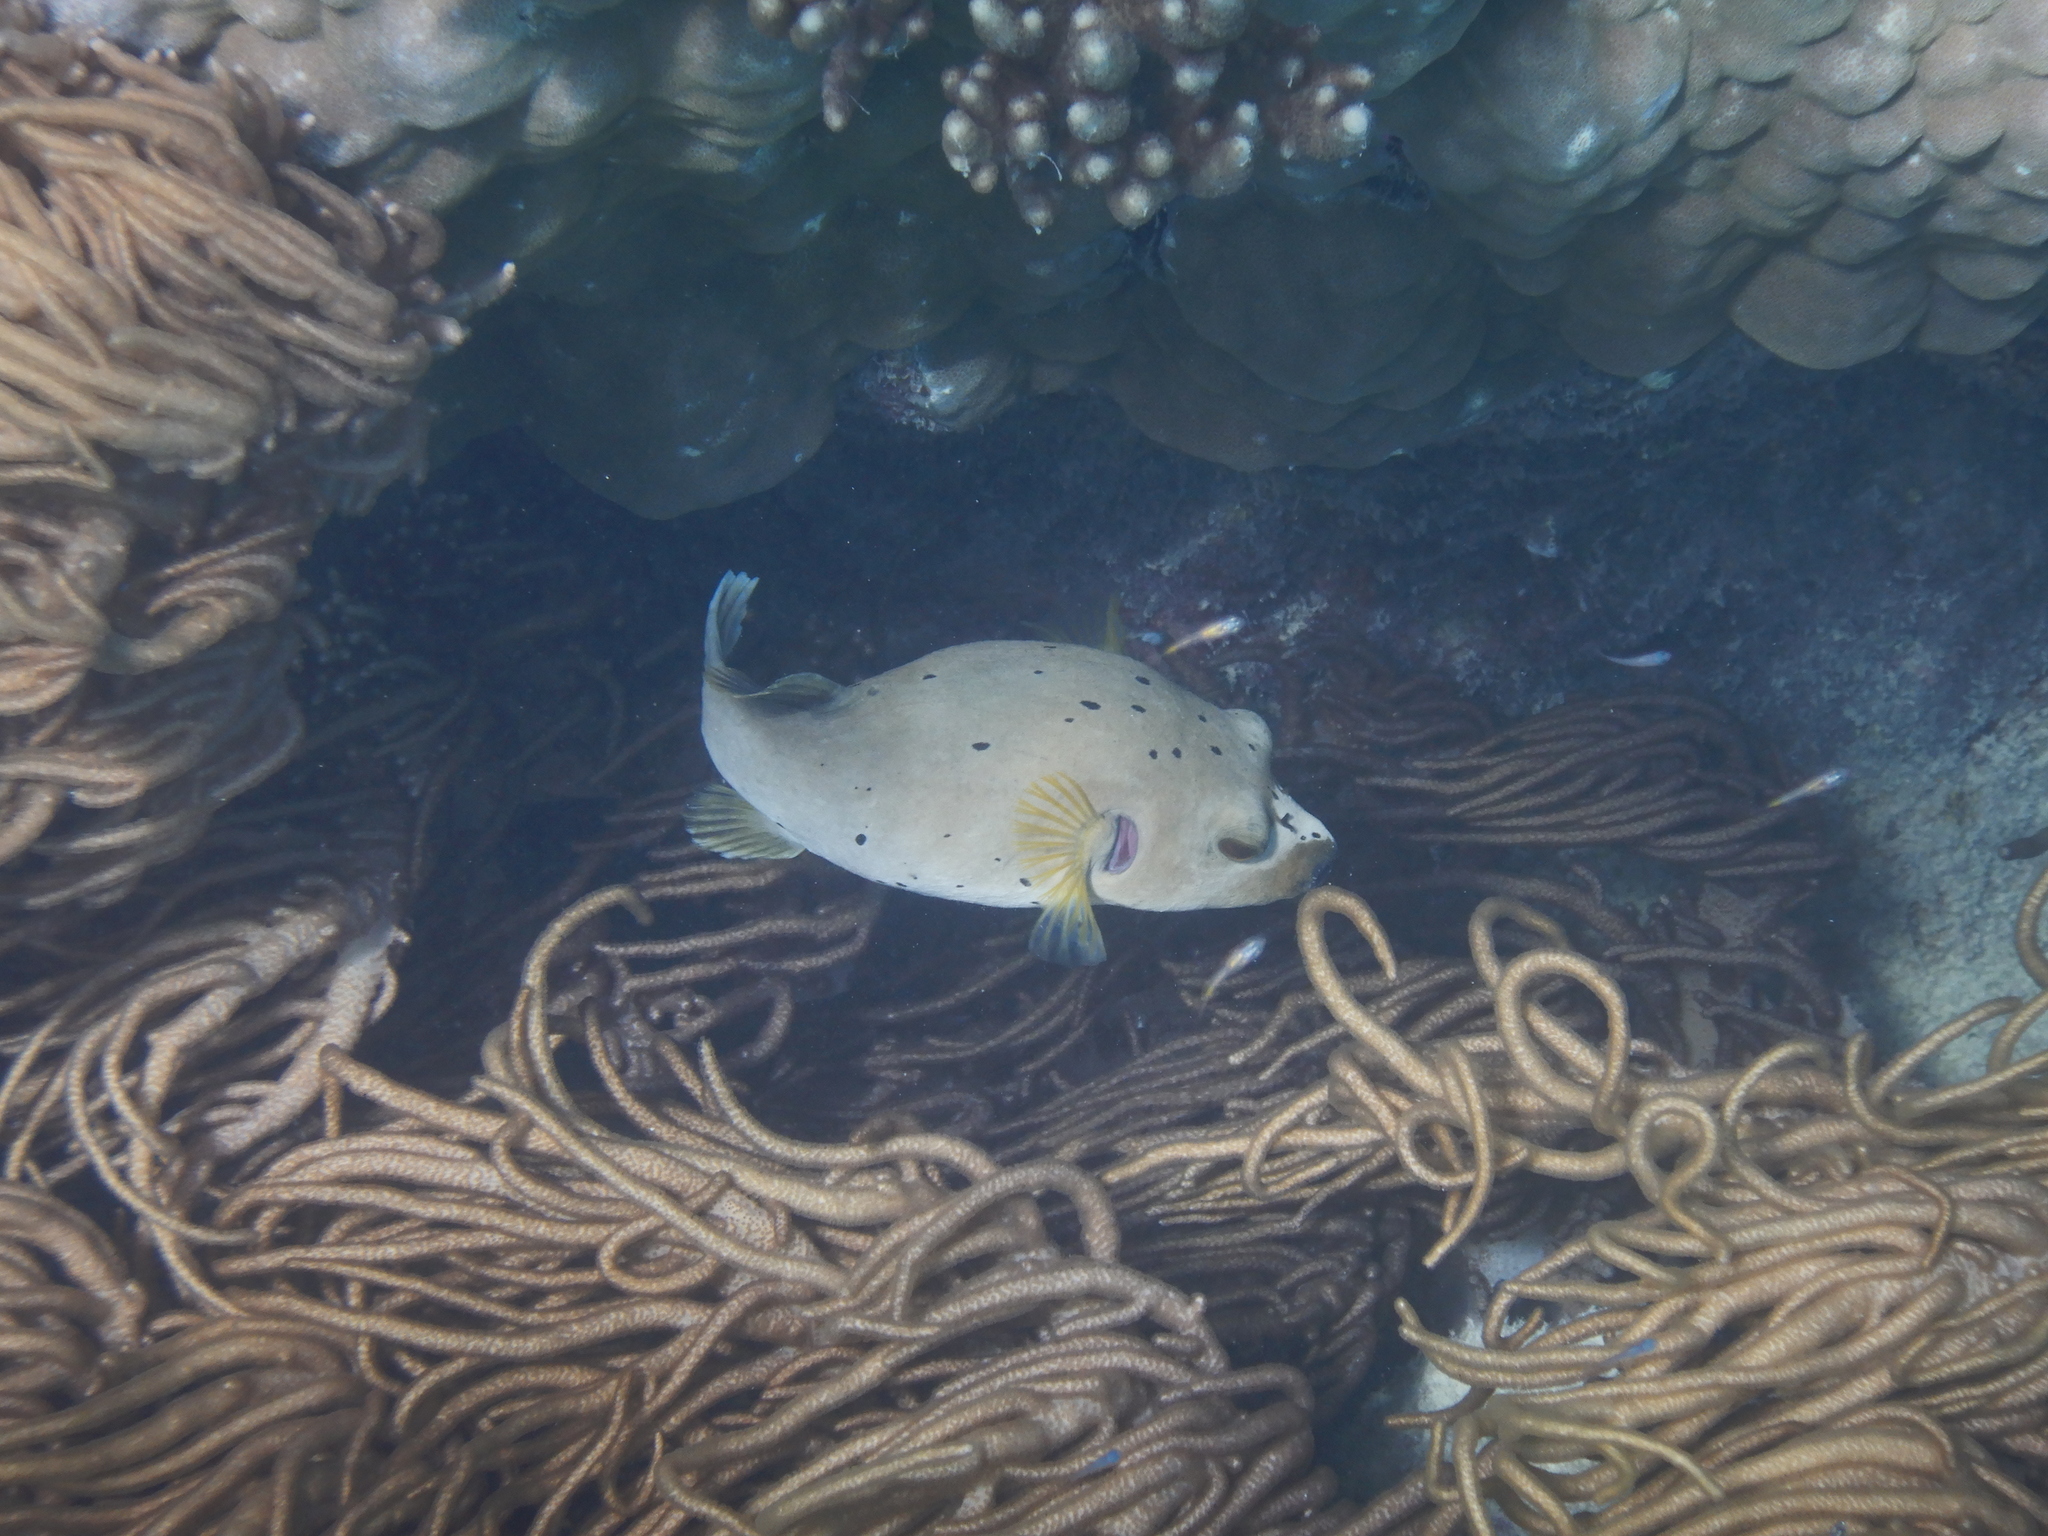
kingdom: Animalia
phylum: Chordata
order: Tetraodontiformes
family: Tetraodontidae
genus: Arothron
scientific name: Arothron nigropunctatus
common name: Black spotted blow fish
